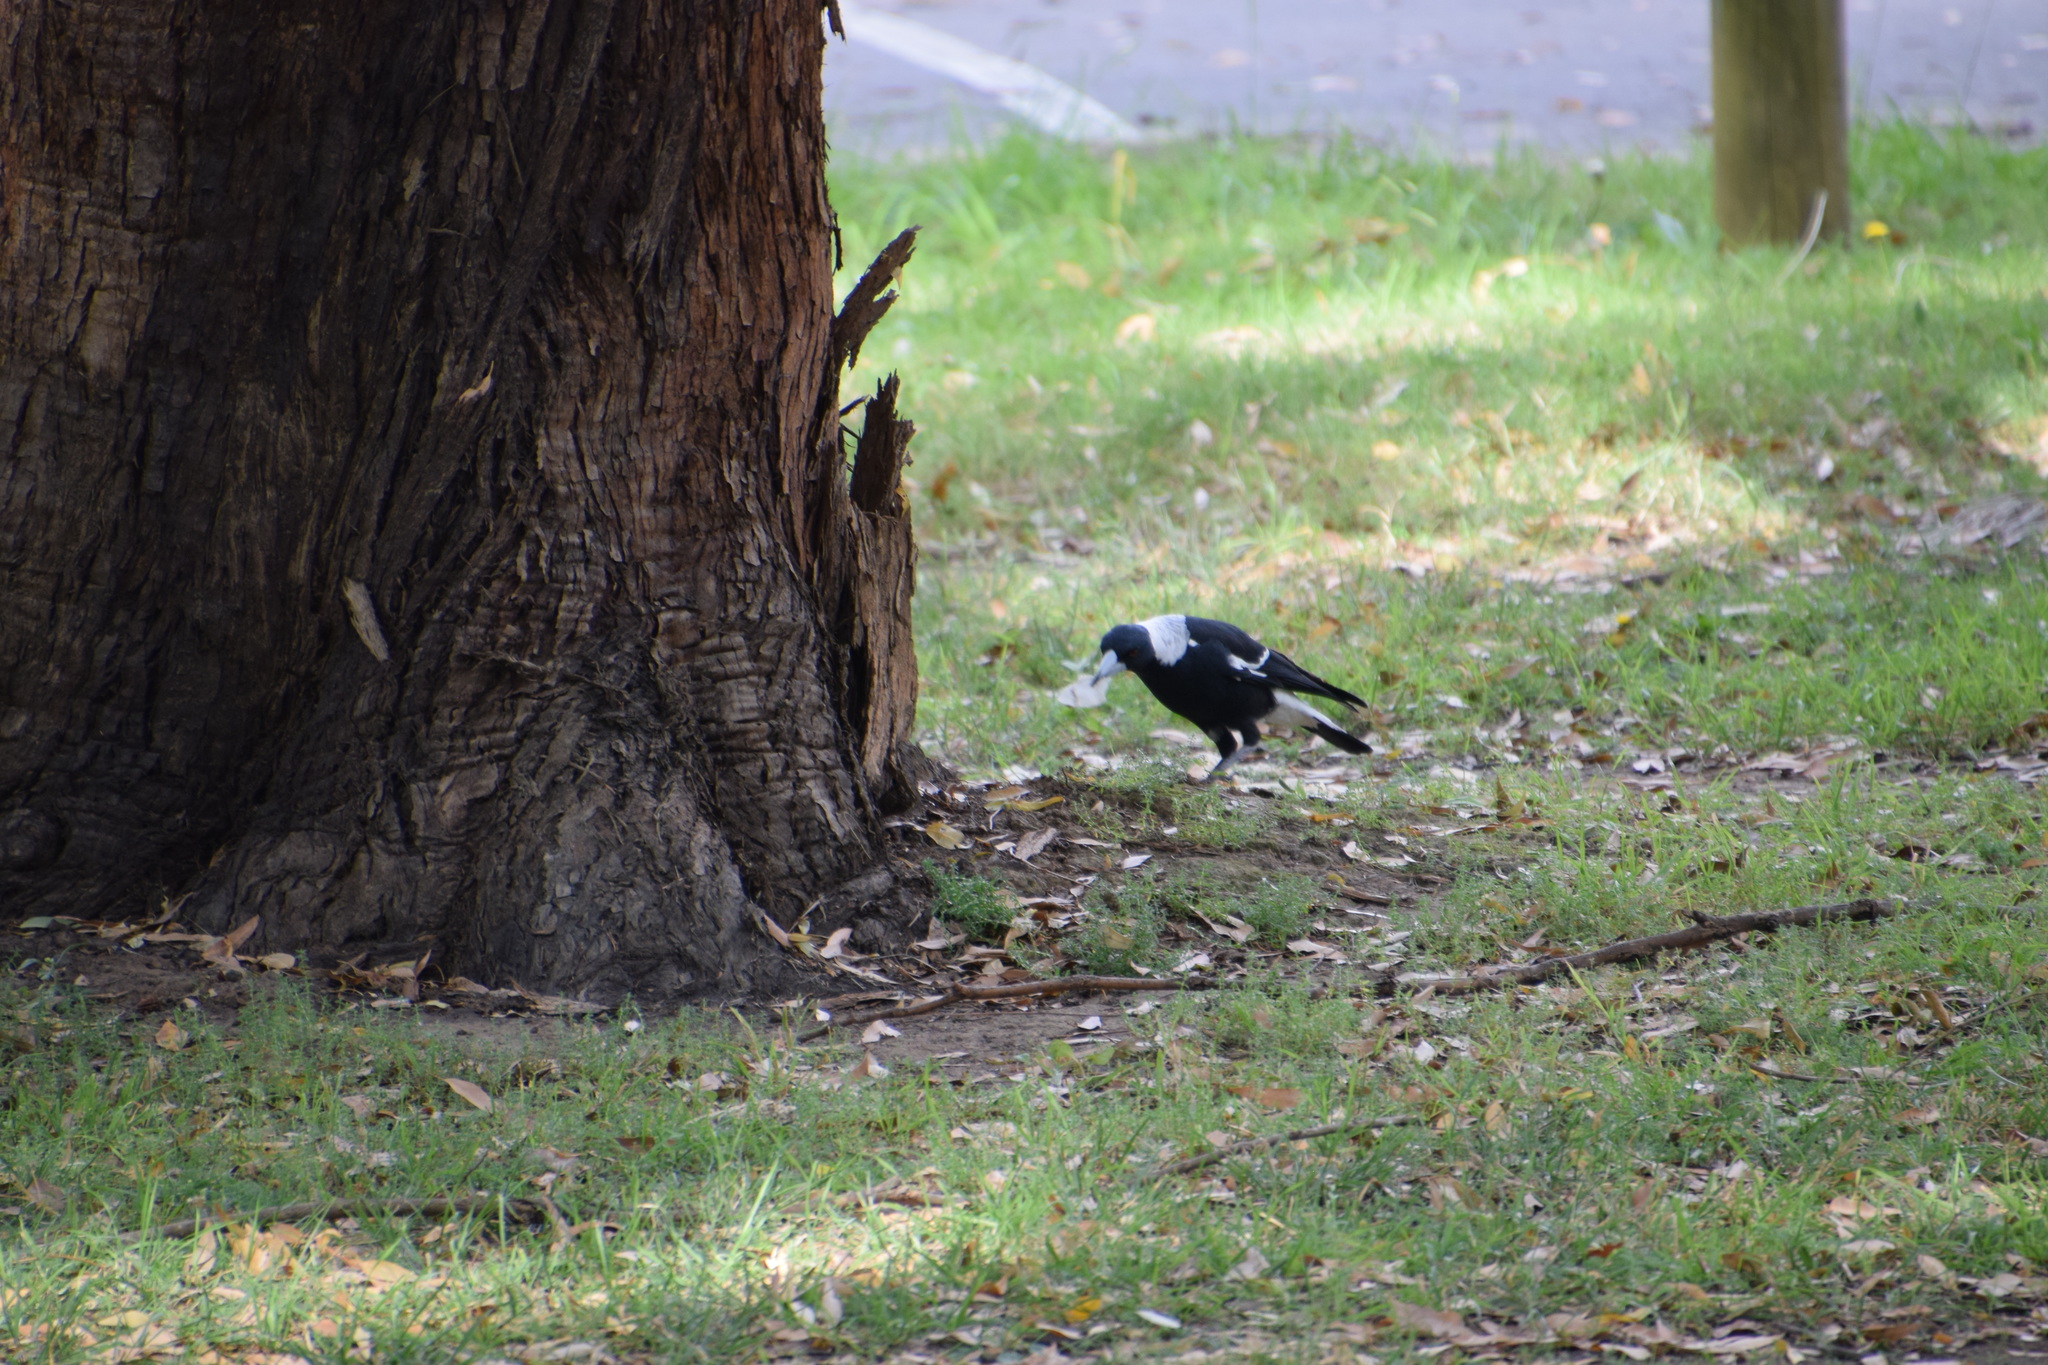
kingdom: Animalia
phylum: Chordata
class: Aves
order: Passeriformes
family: Cracticidae
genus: Gymnorhina
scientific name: Gymnorhina tibicen
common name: Australian magpie
